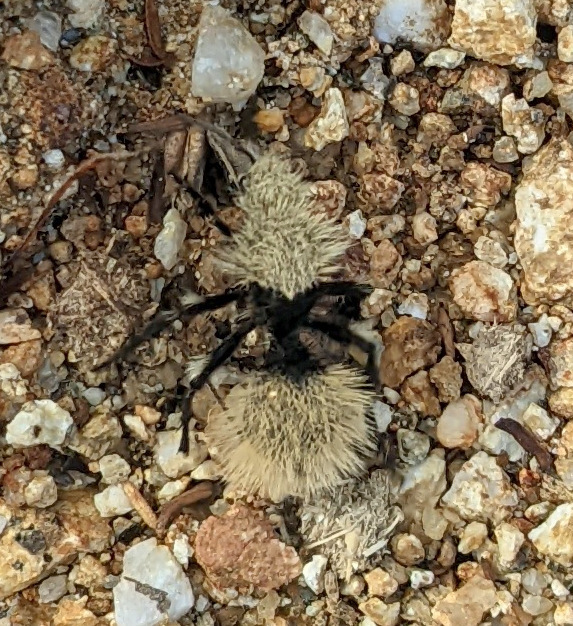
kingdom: Animalia
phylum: Arthropoda
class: Insecta
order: Hymenoptera
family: Mutillidae
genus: Dasymutilla
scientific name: Dasymutilla
